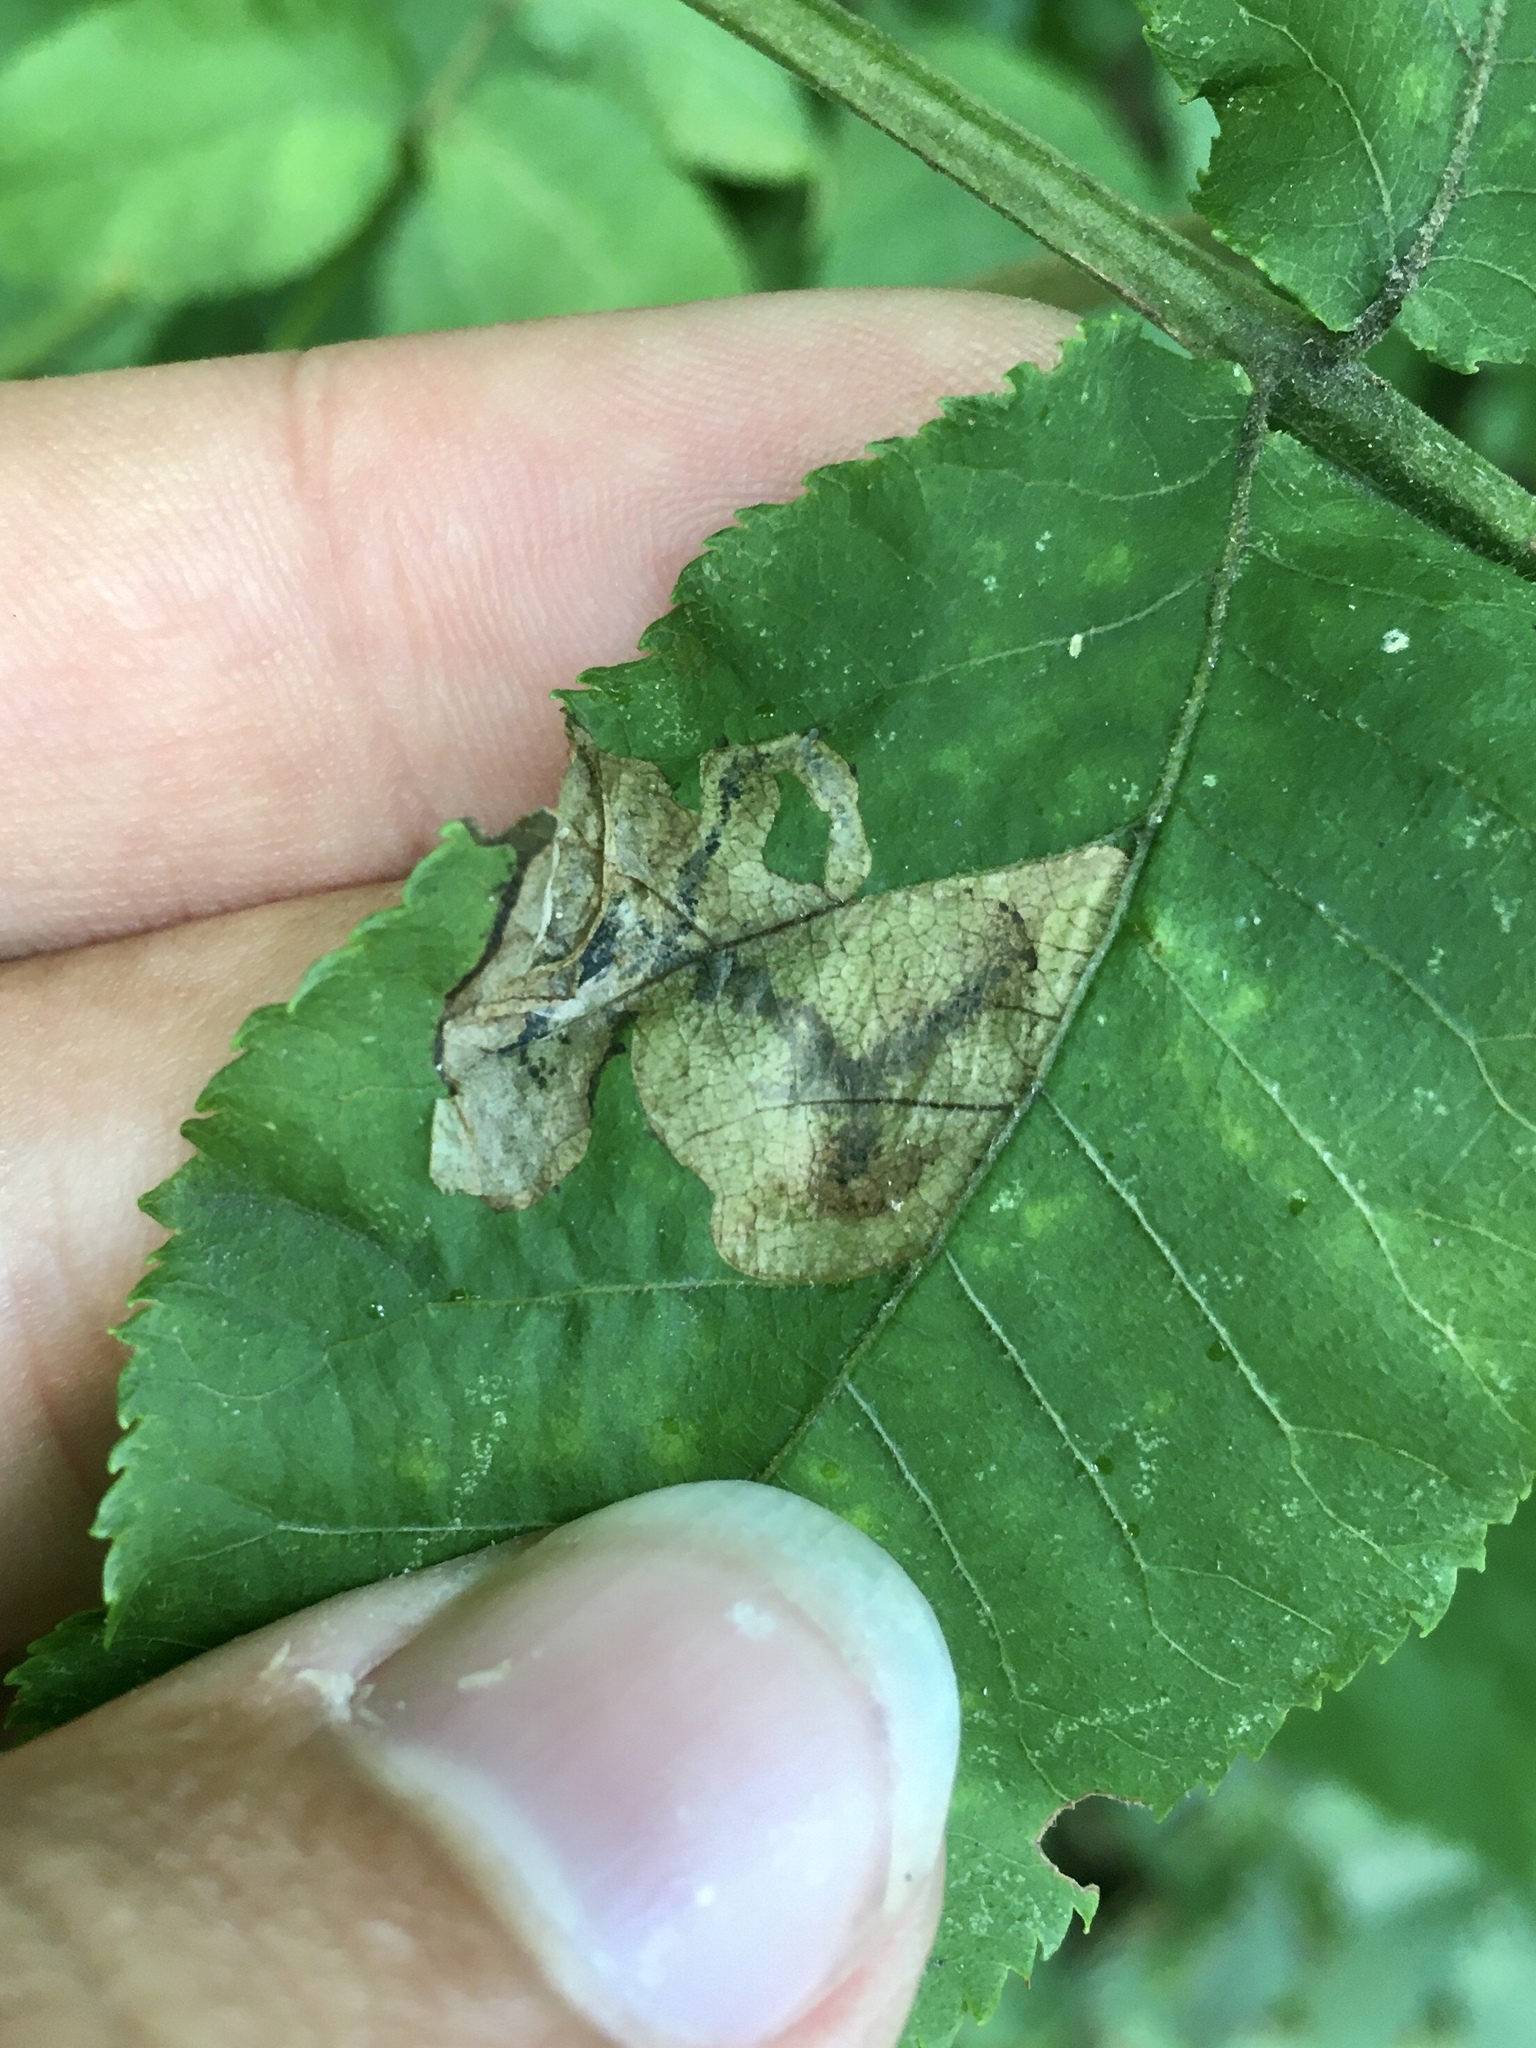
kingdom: Animalia
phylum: Arthropoda
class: Insecta
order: Lepidoptera
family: Gracillariidae
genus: Cameraria
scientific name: Cameraria caryaefoliella
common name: Pecan leafminer moth
